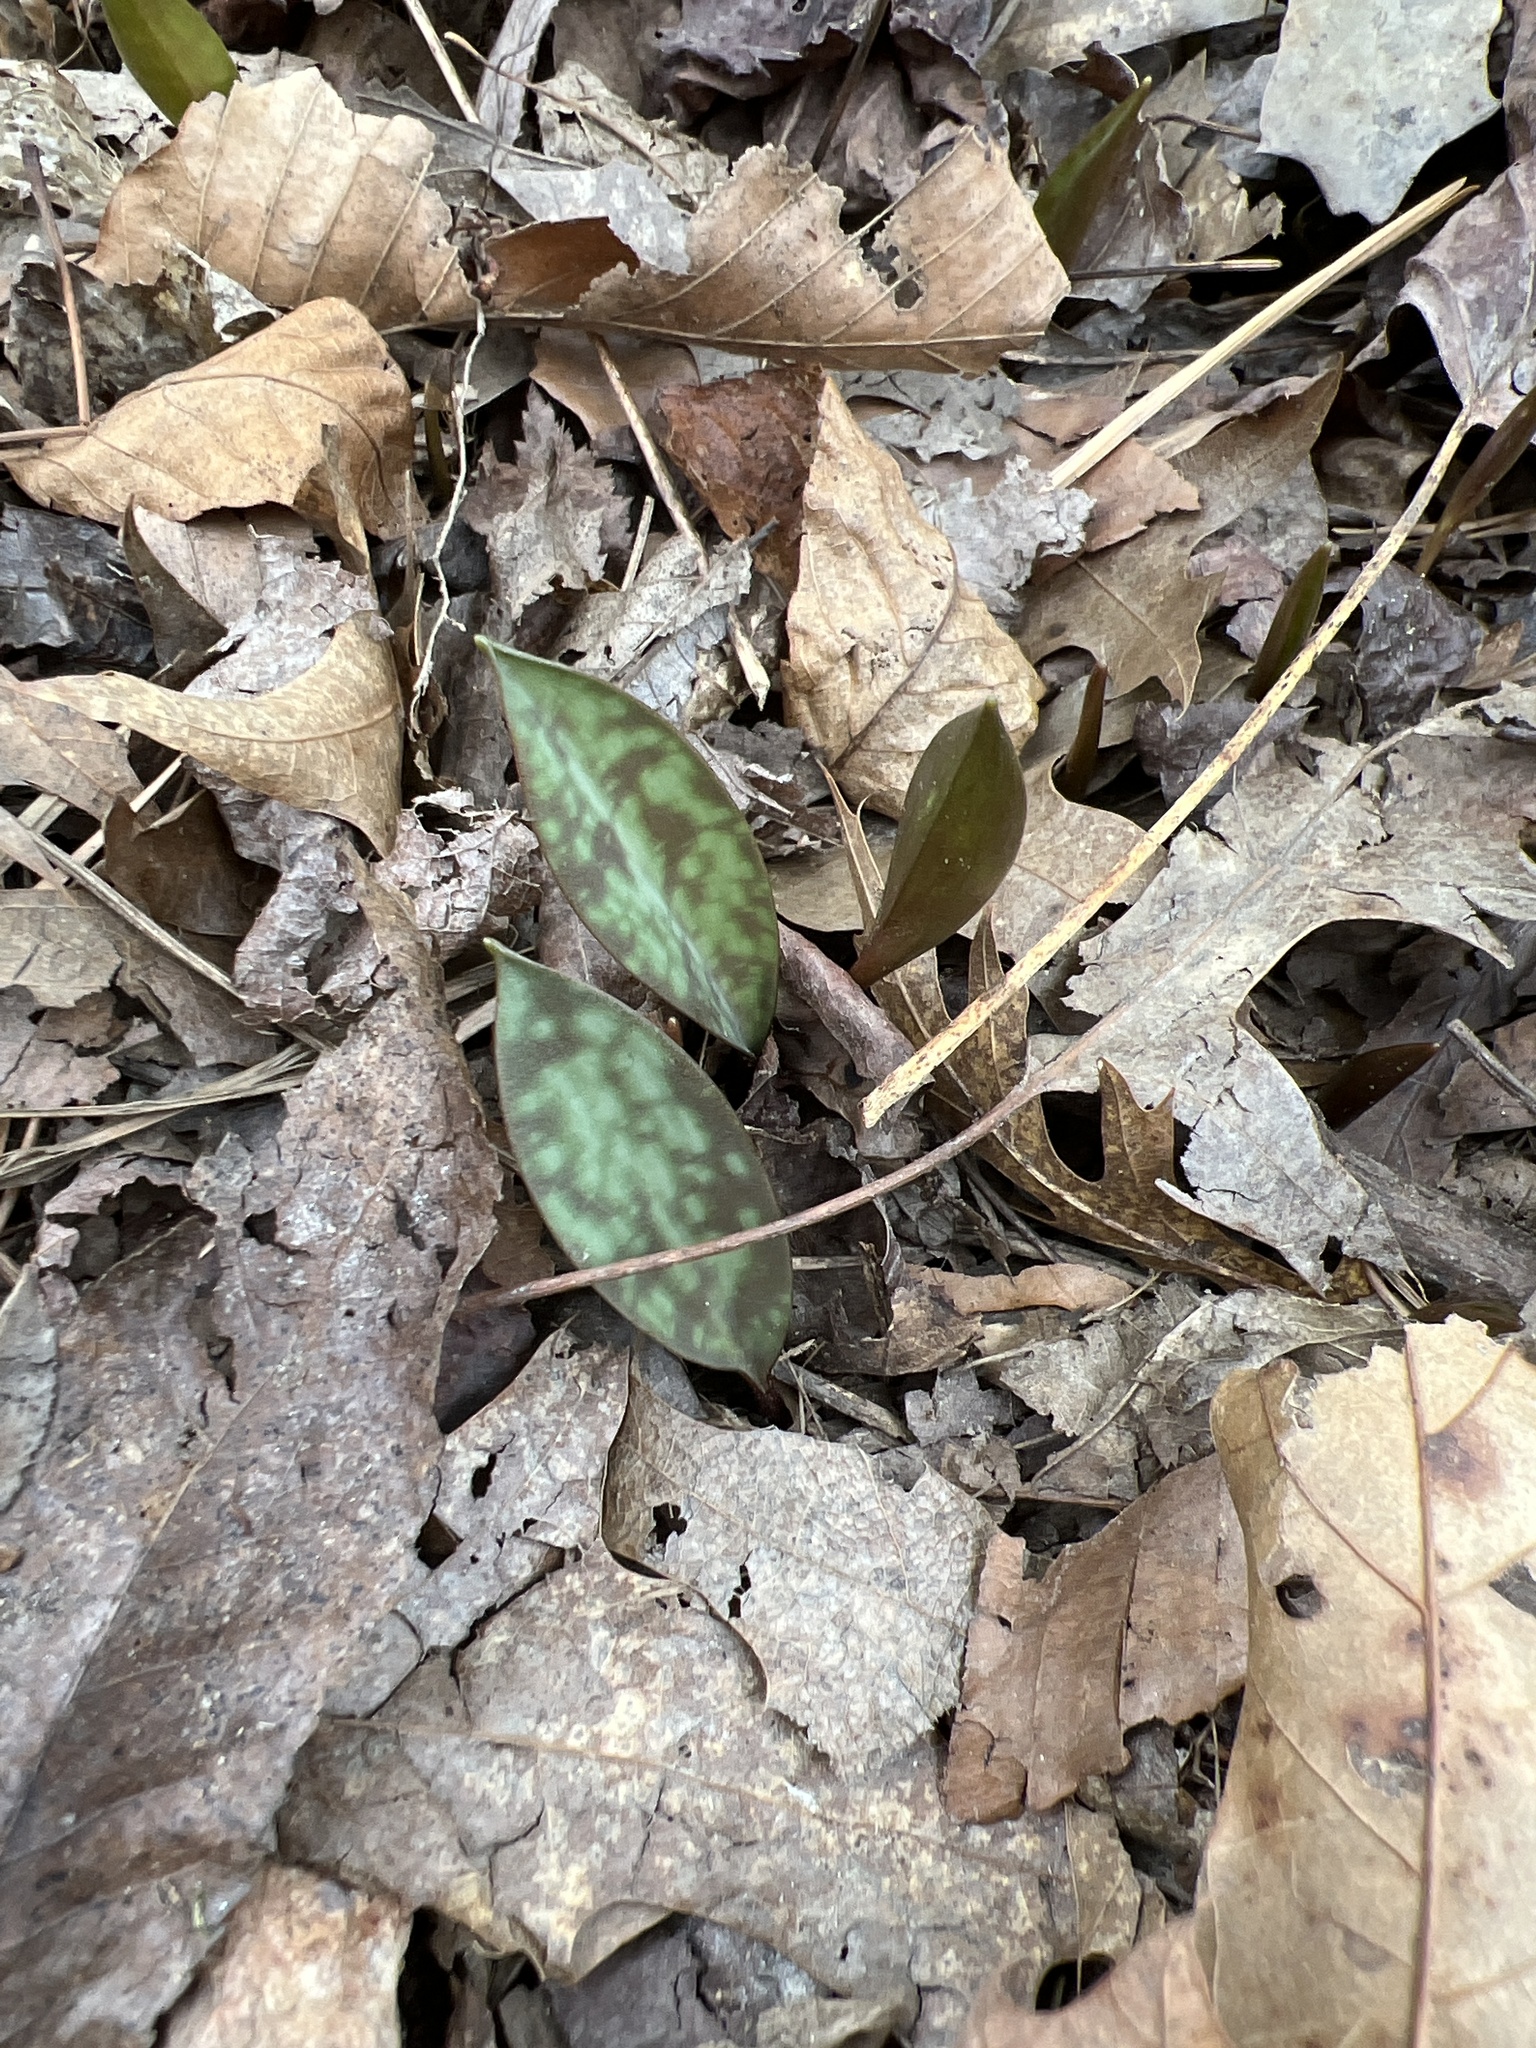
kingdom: Plantae
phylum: Tracheophyta
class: Liliopsida
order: Liliales
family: Liliaceae
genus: Erythronium
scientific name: Erythronium americanum
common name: Yellow adder's-tongue
